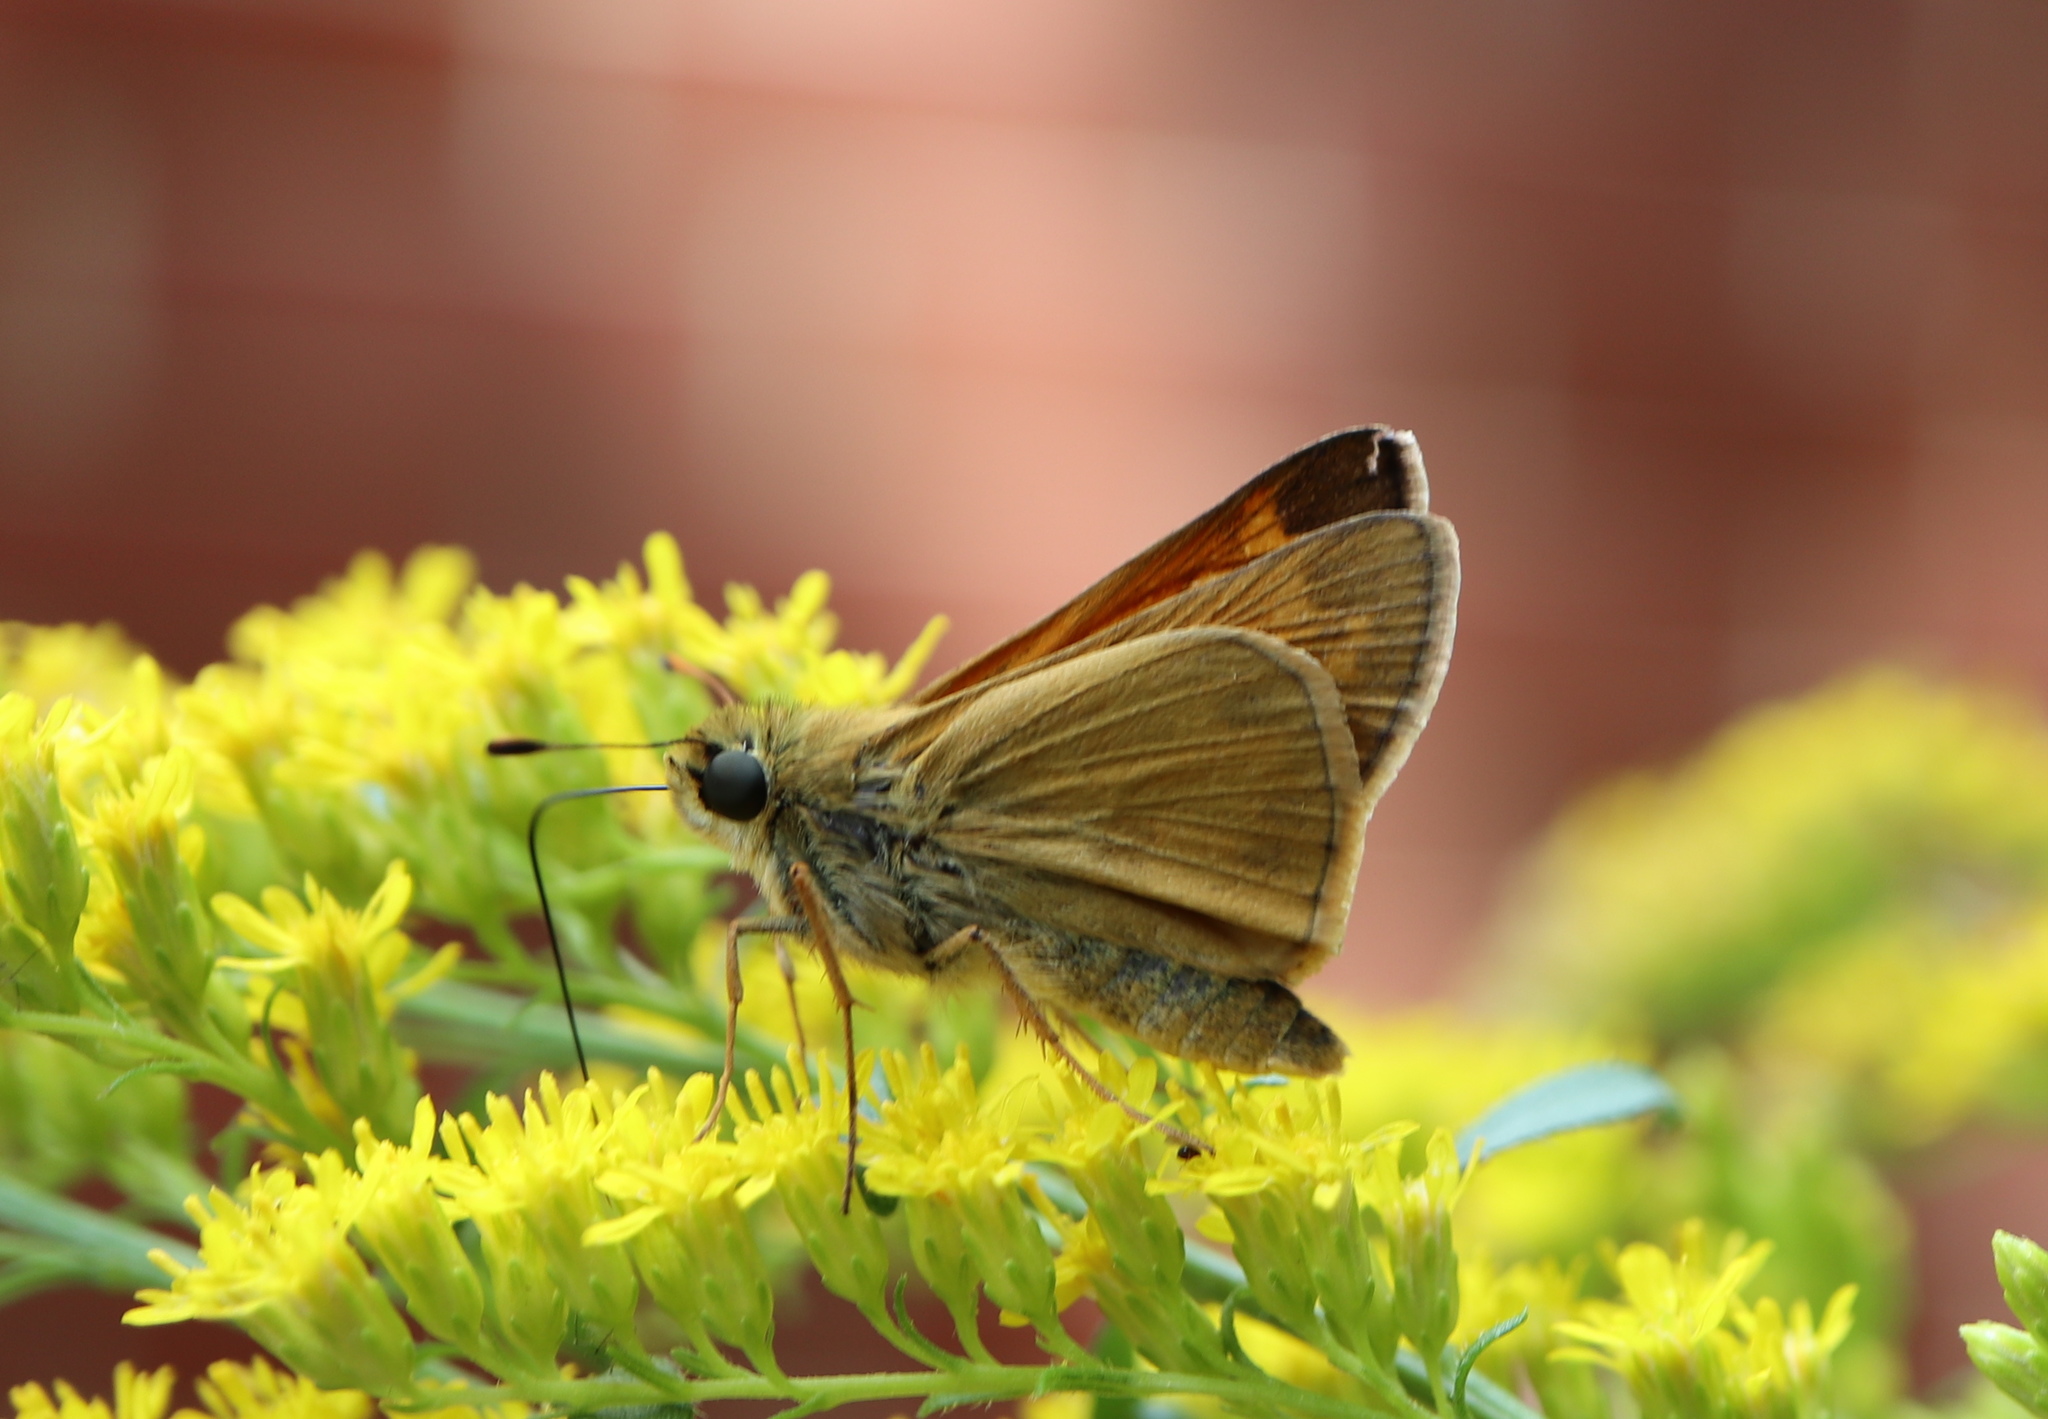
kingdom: Animalia
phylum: Arthropoda
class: Insecta
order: Lepidoptera
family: Hesperiidae
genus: Atalopedes
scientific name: Atalopedes
